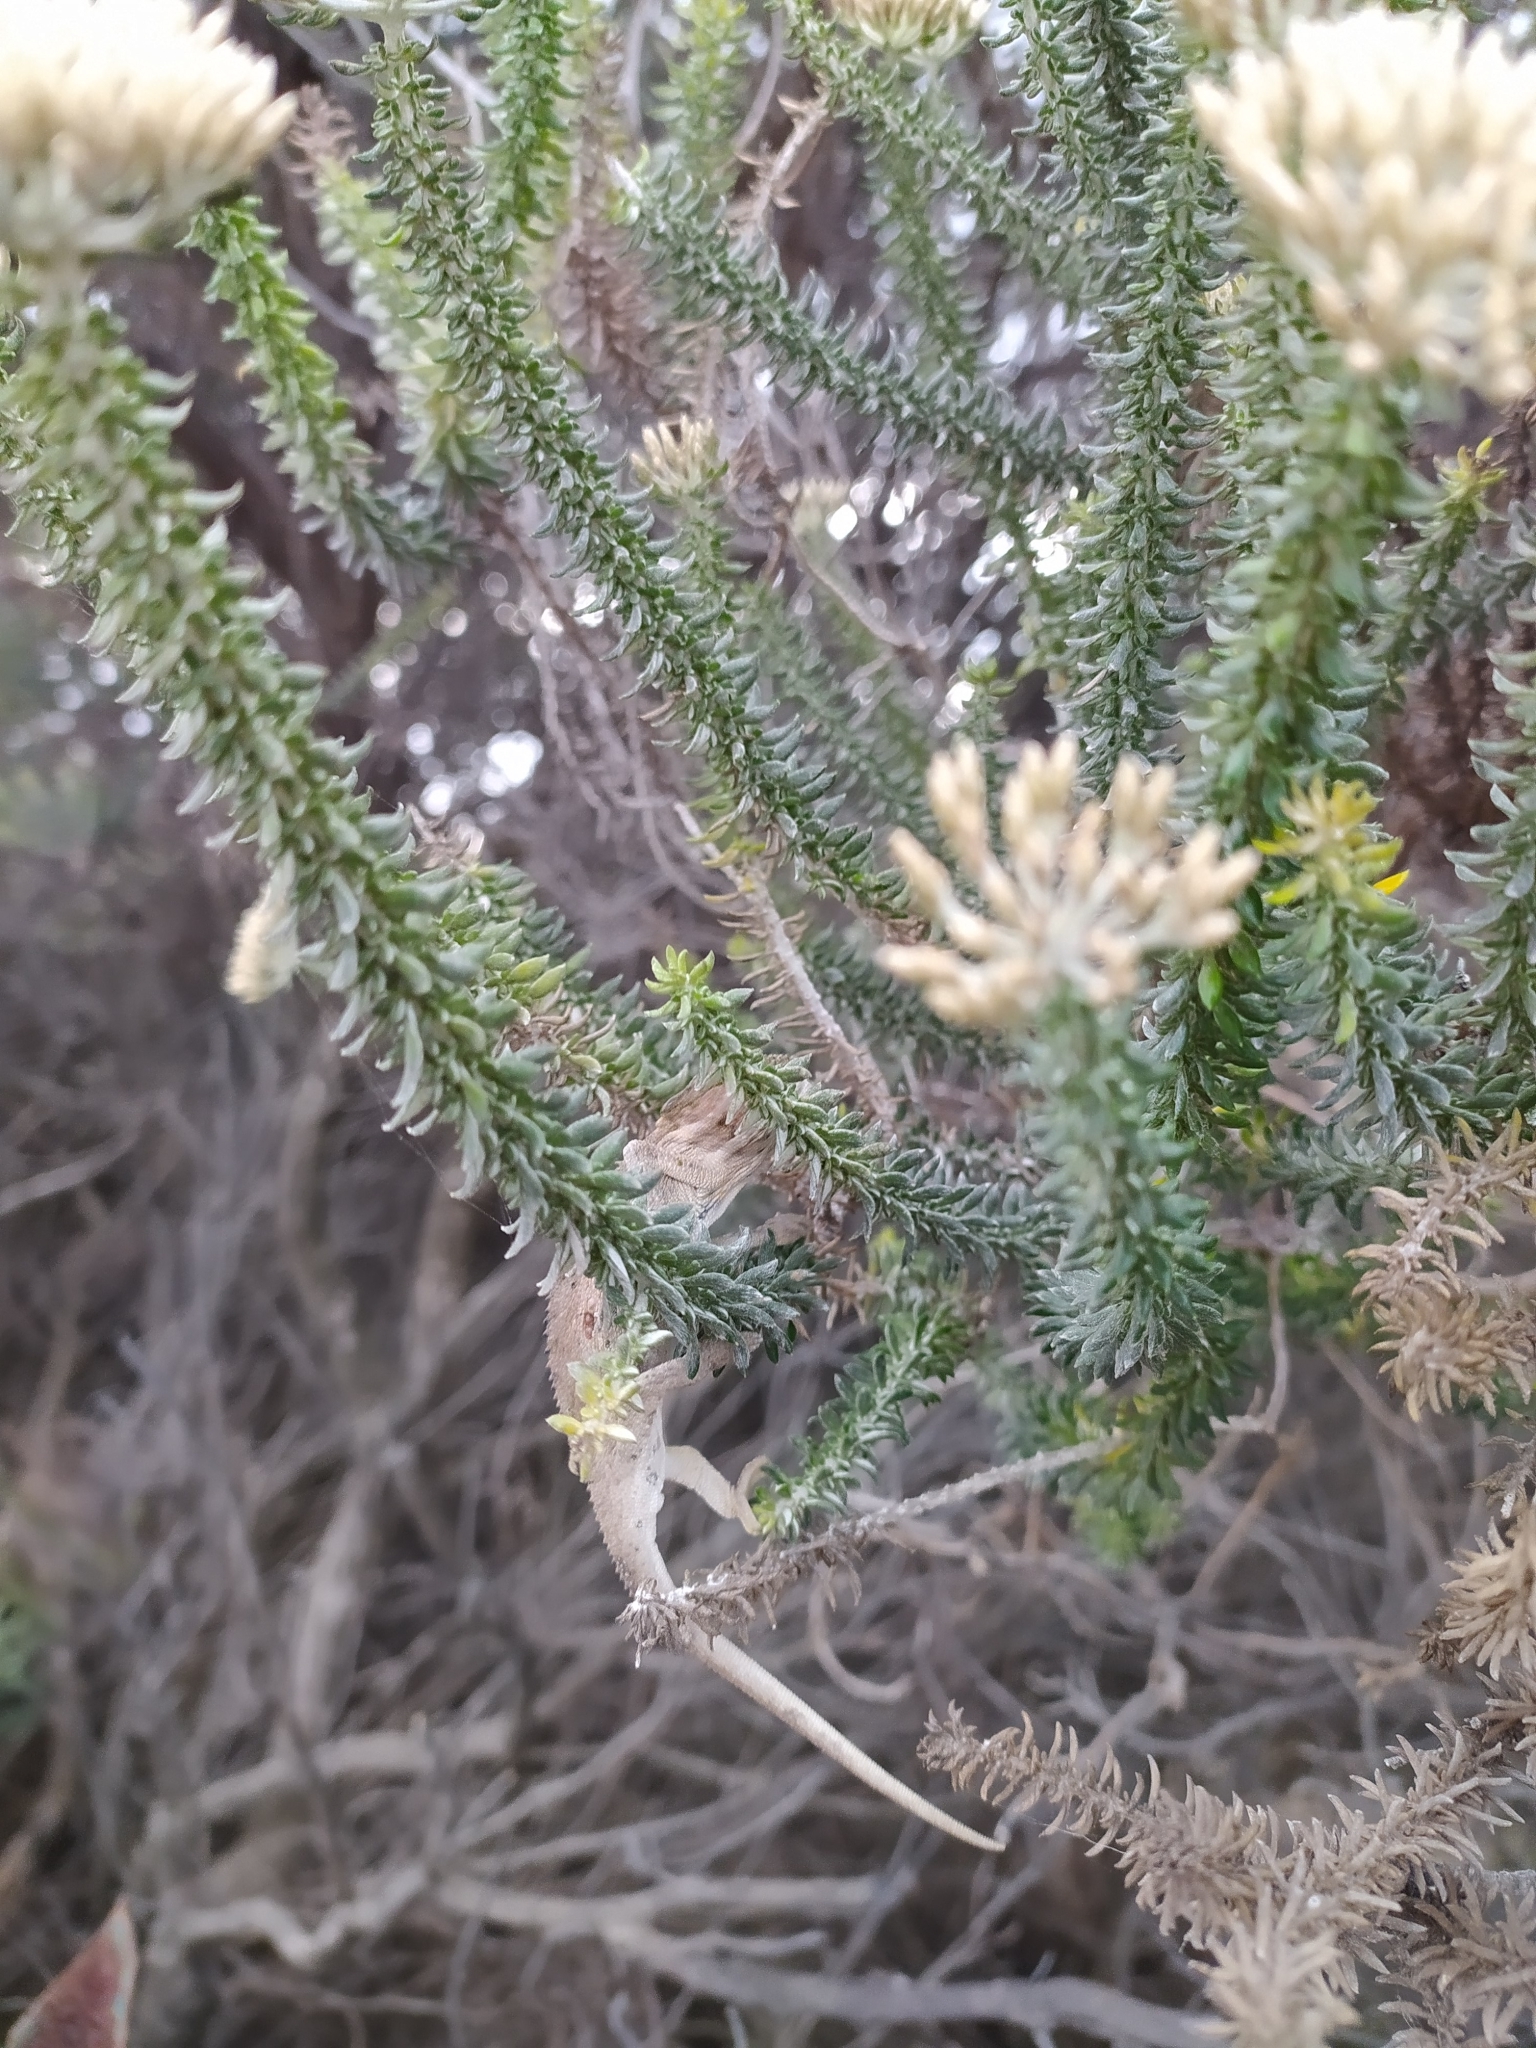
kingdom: Animalia
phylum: Chordata
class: Squamata
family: Chamaeleonidae
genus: Bradypodion
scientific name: Bradypodion pumilum
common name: Cape dwarf chameleon
